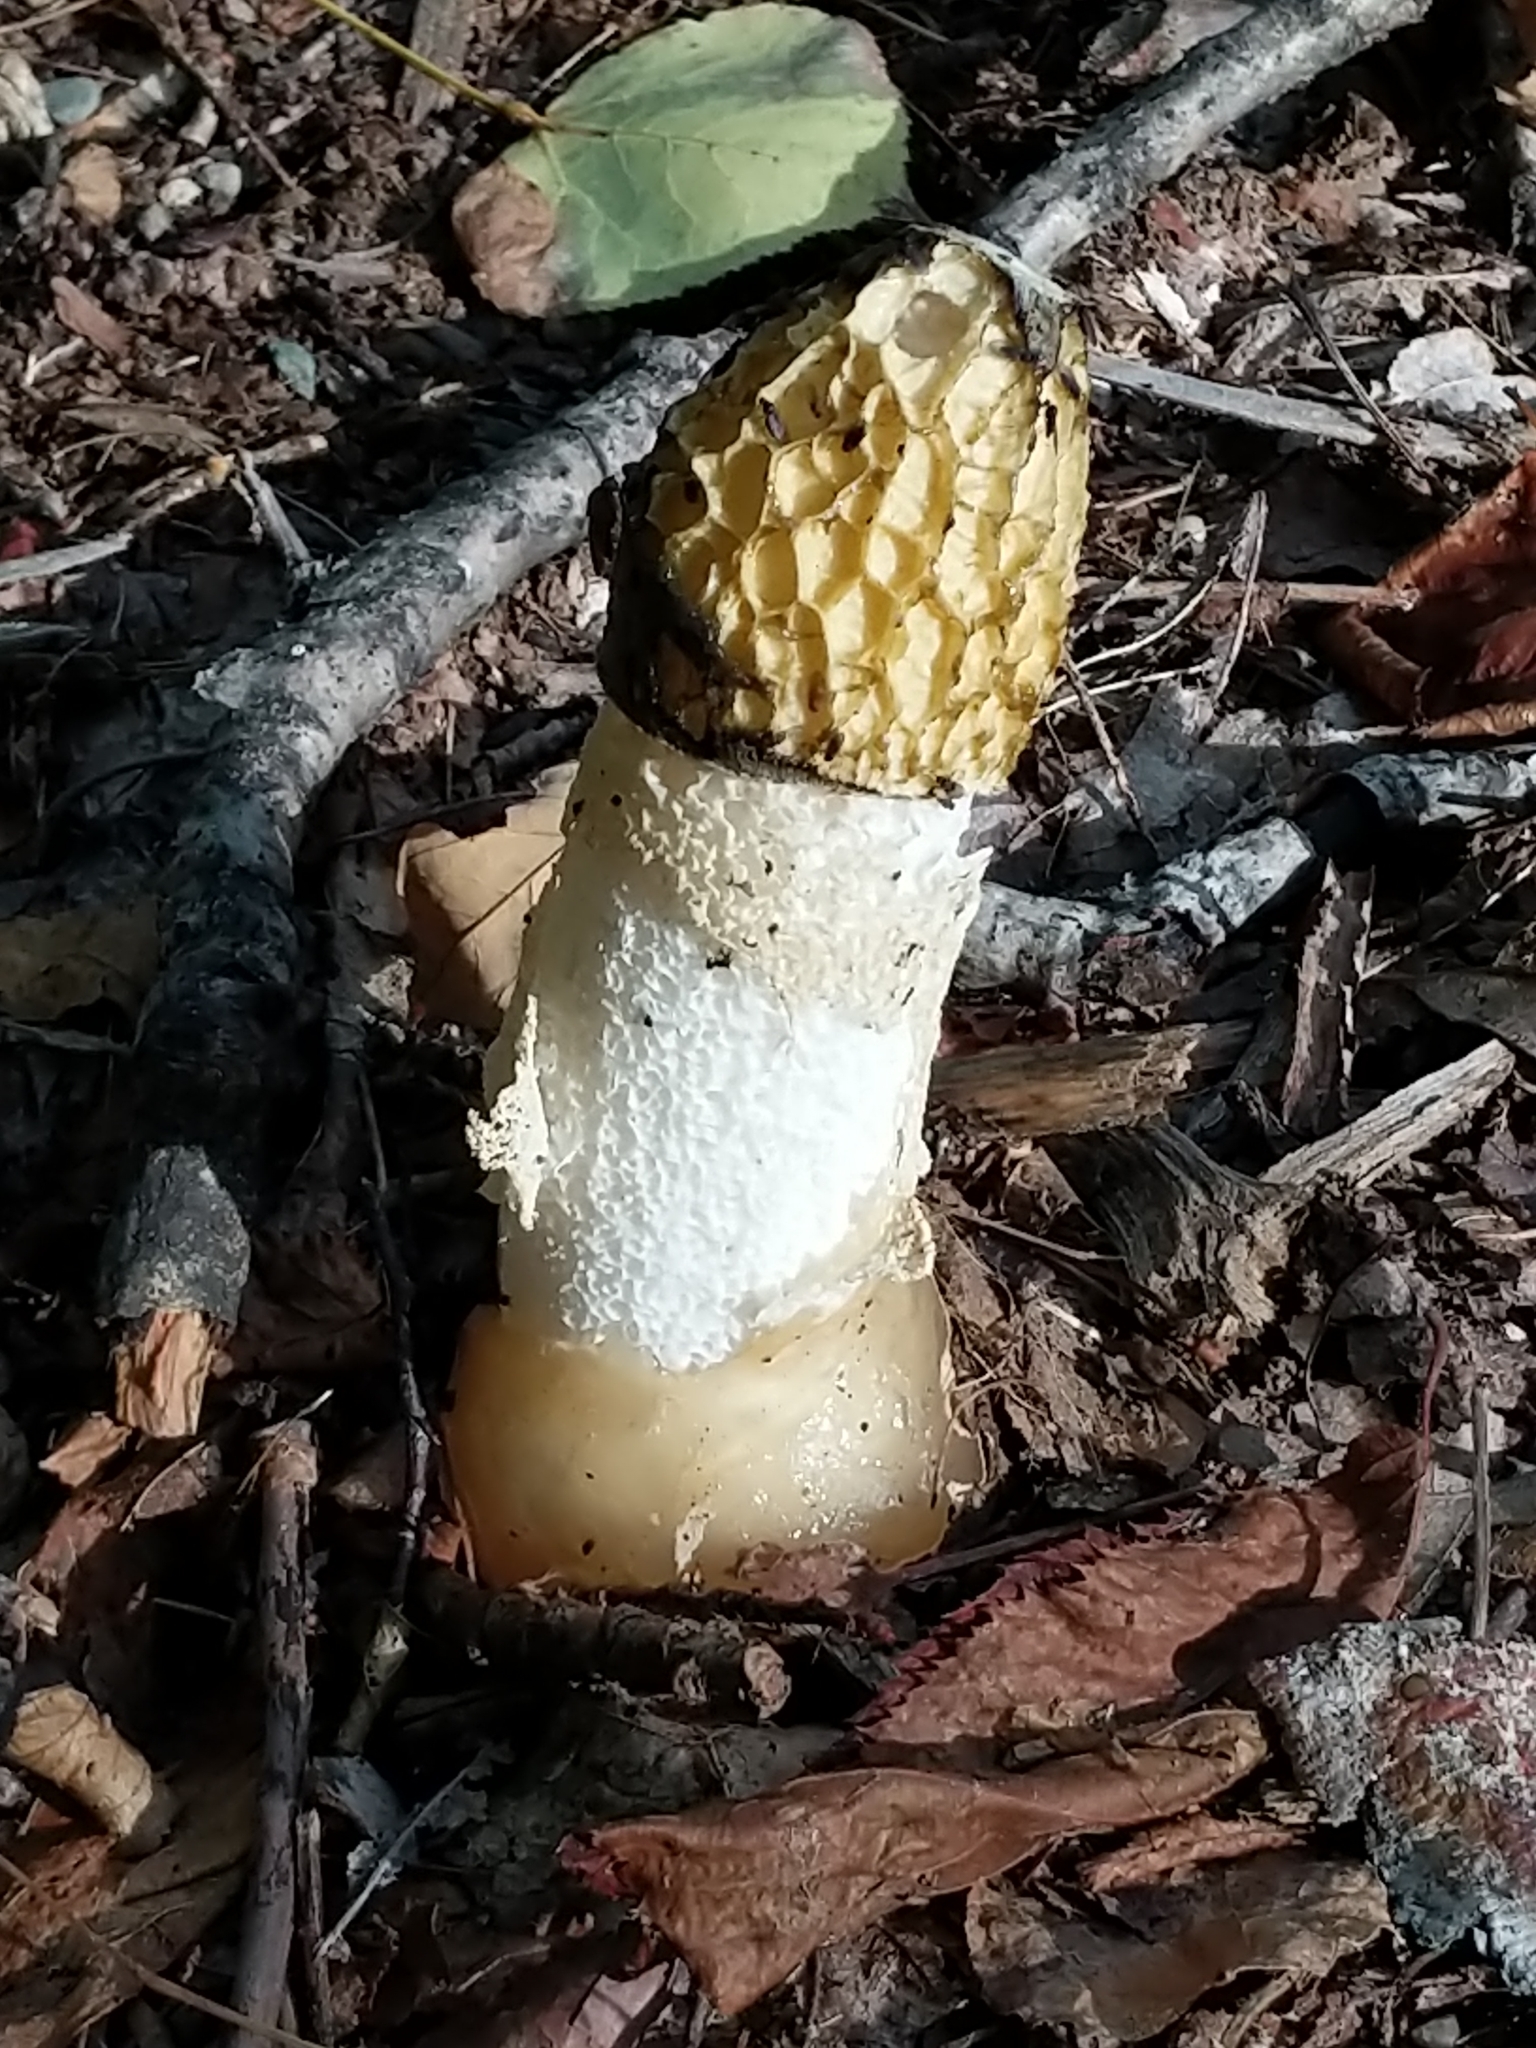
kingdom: Fungi
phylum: Basidiomycota
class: Agaricomycetes
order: Phallales
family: Phallaceae
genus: Phallus
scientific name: Phallus indusiatus
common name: Bridal veil stinkhorn
